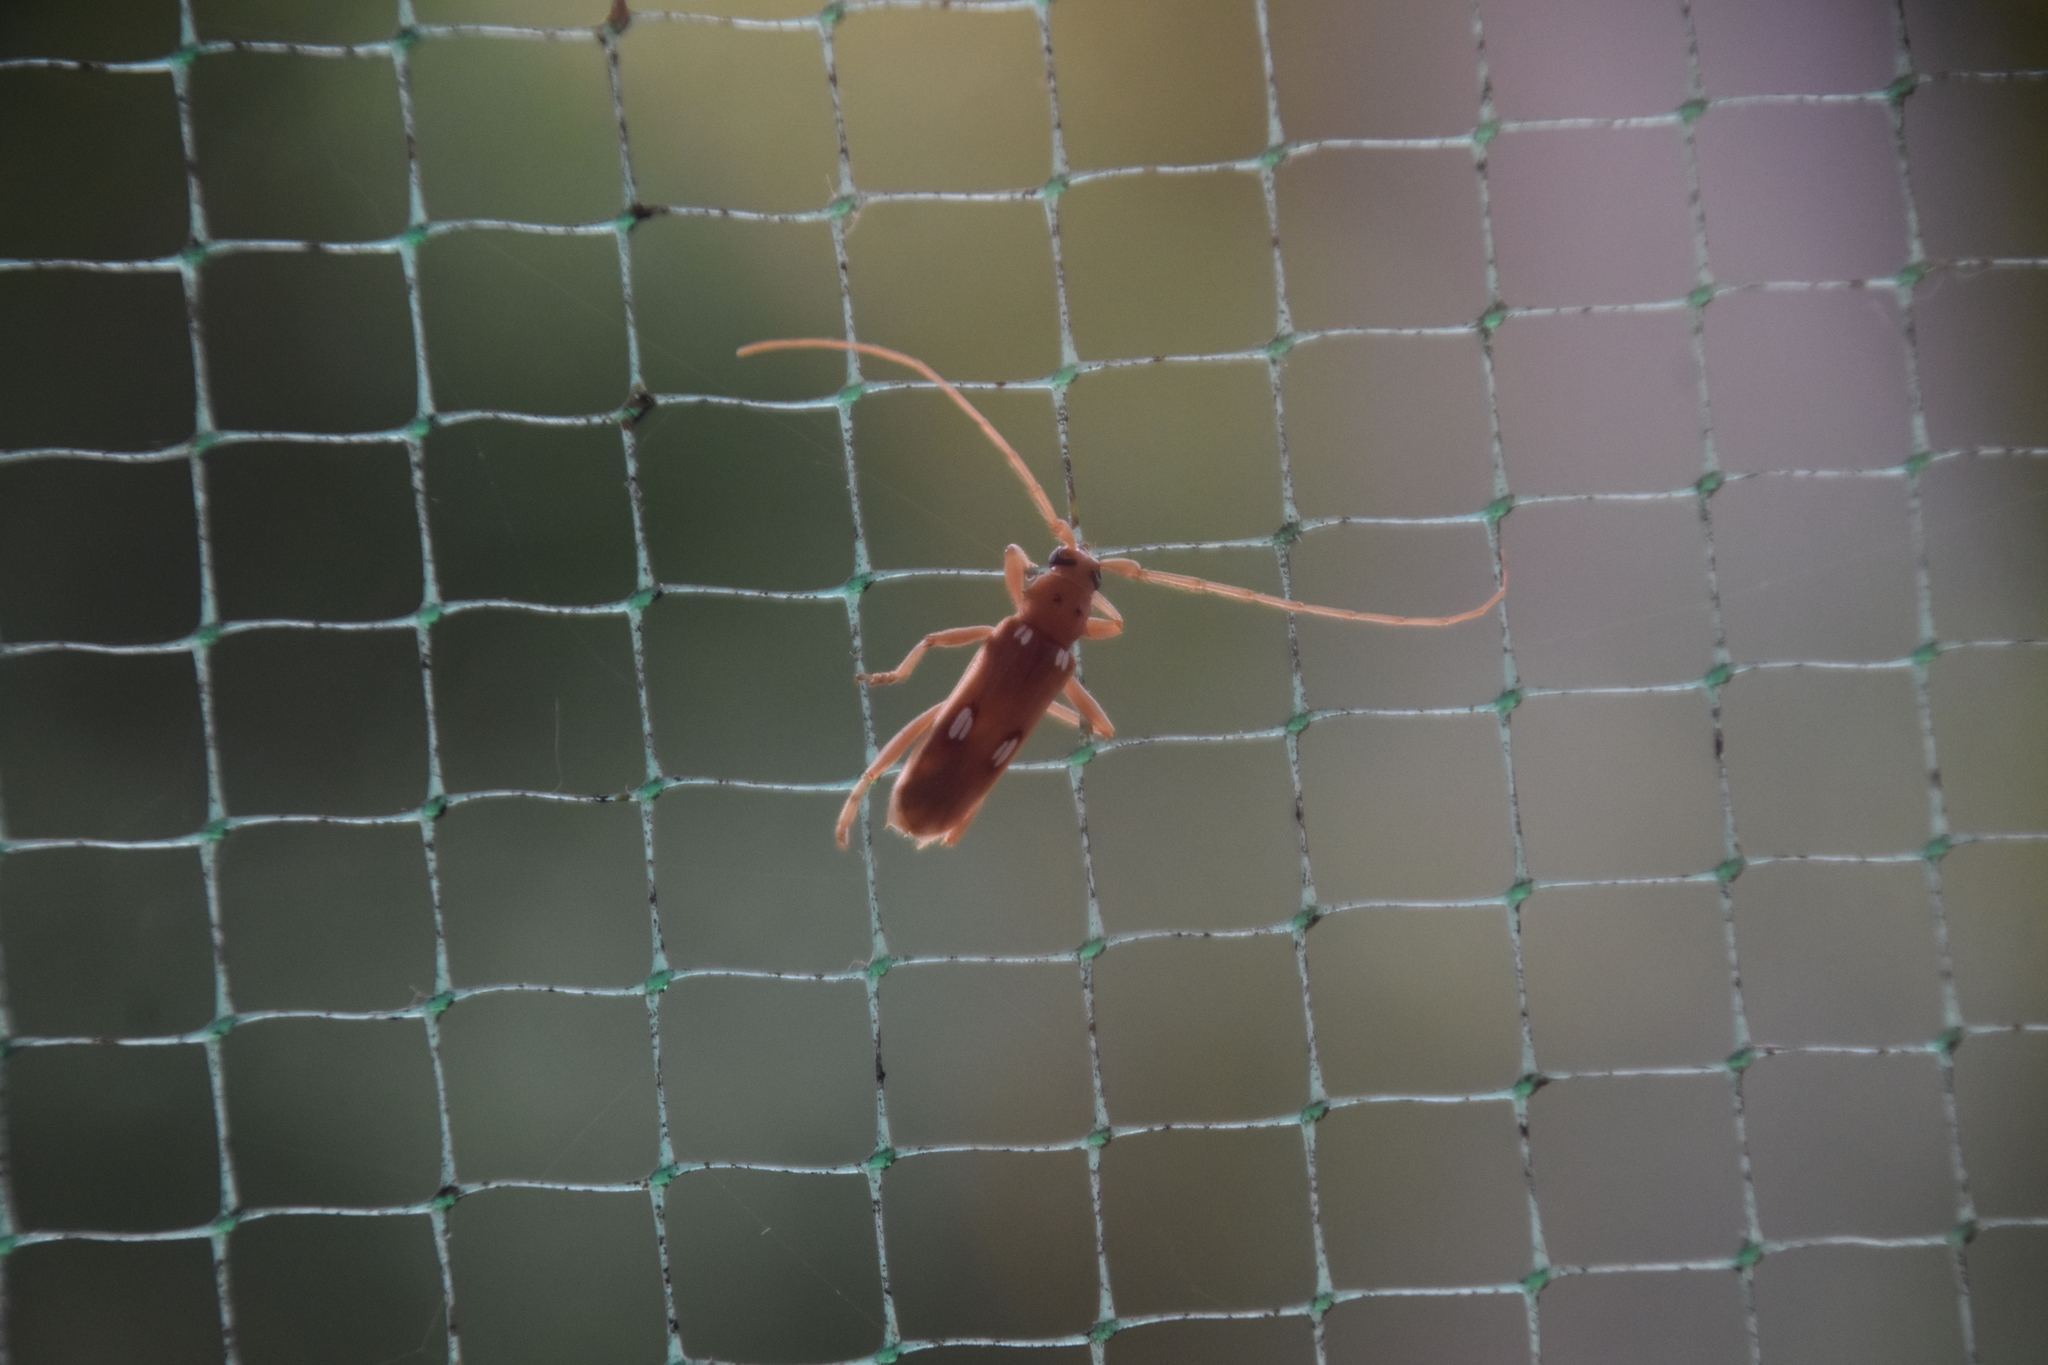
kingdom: Animalia
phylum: Arthropoda
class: Insecta
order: Coleoptera
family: Cerambycidae
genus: Eburia
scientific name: Eburia quadrigeminata
